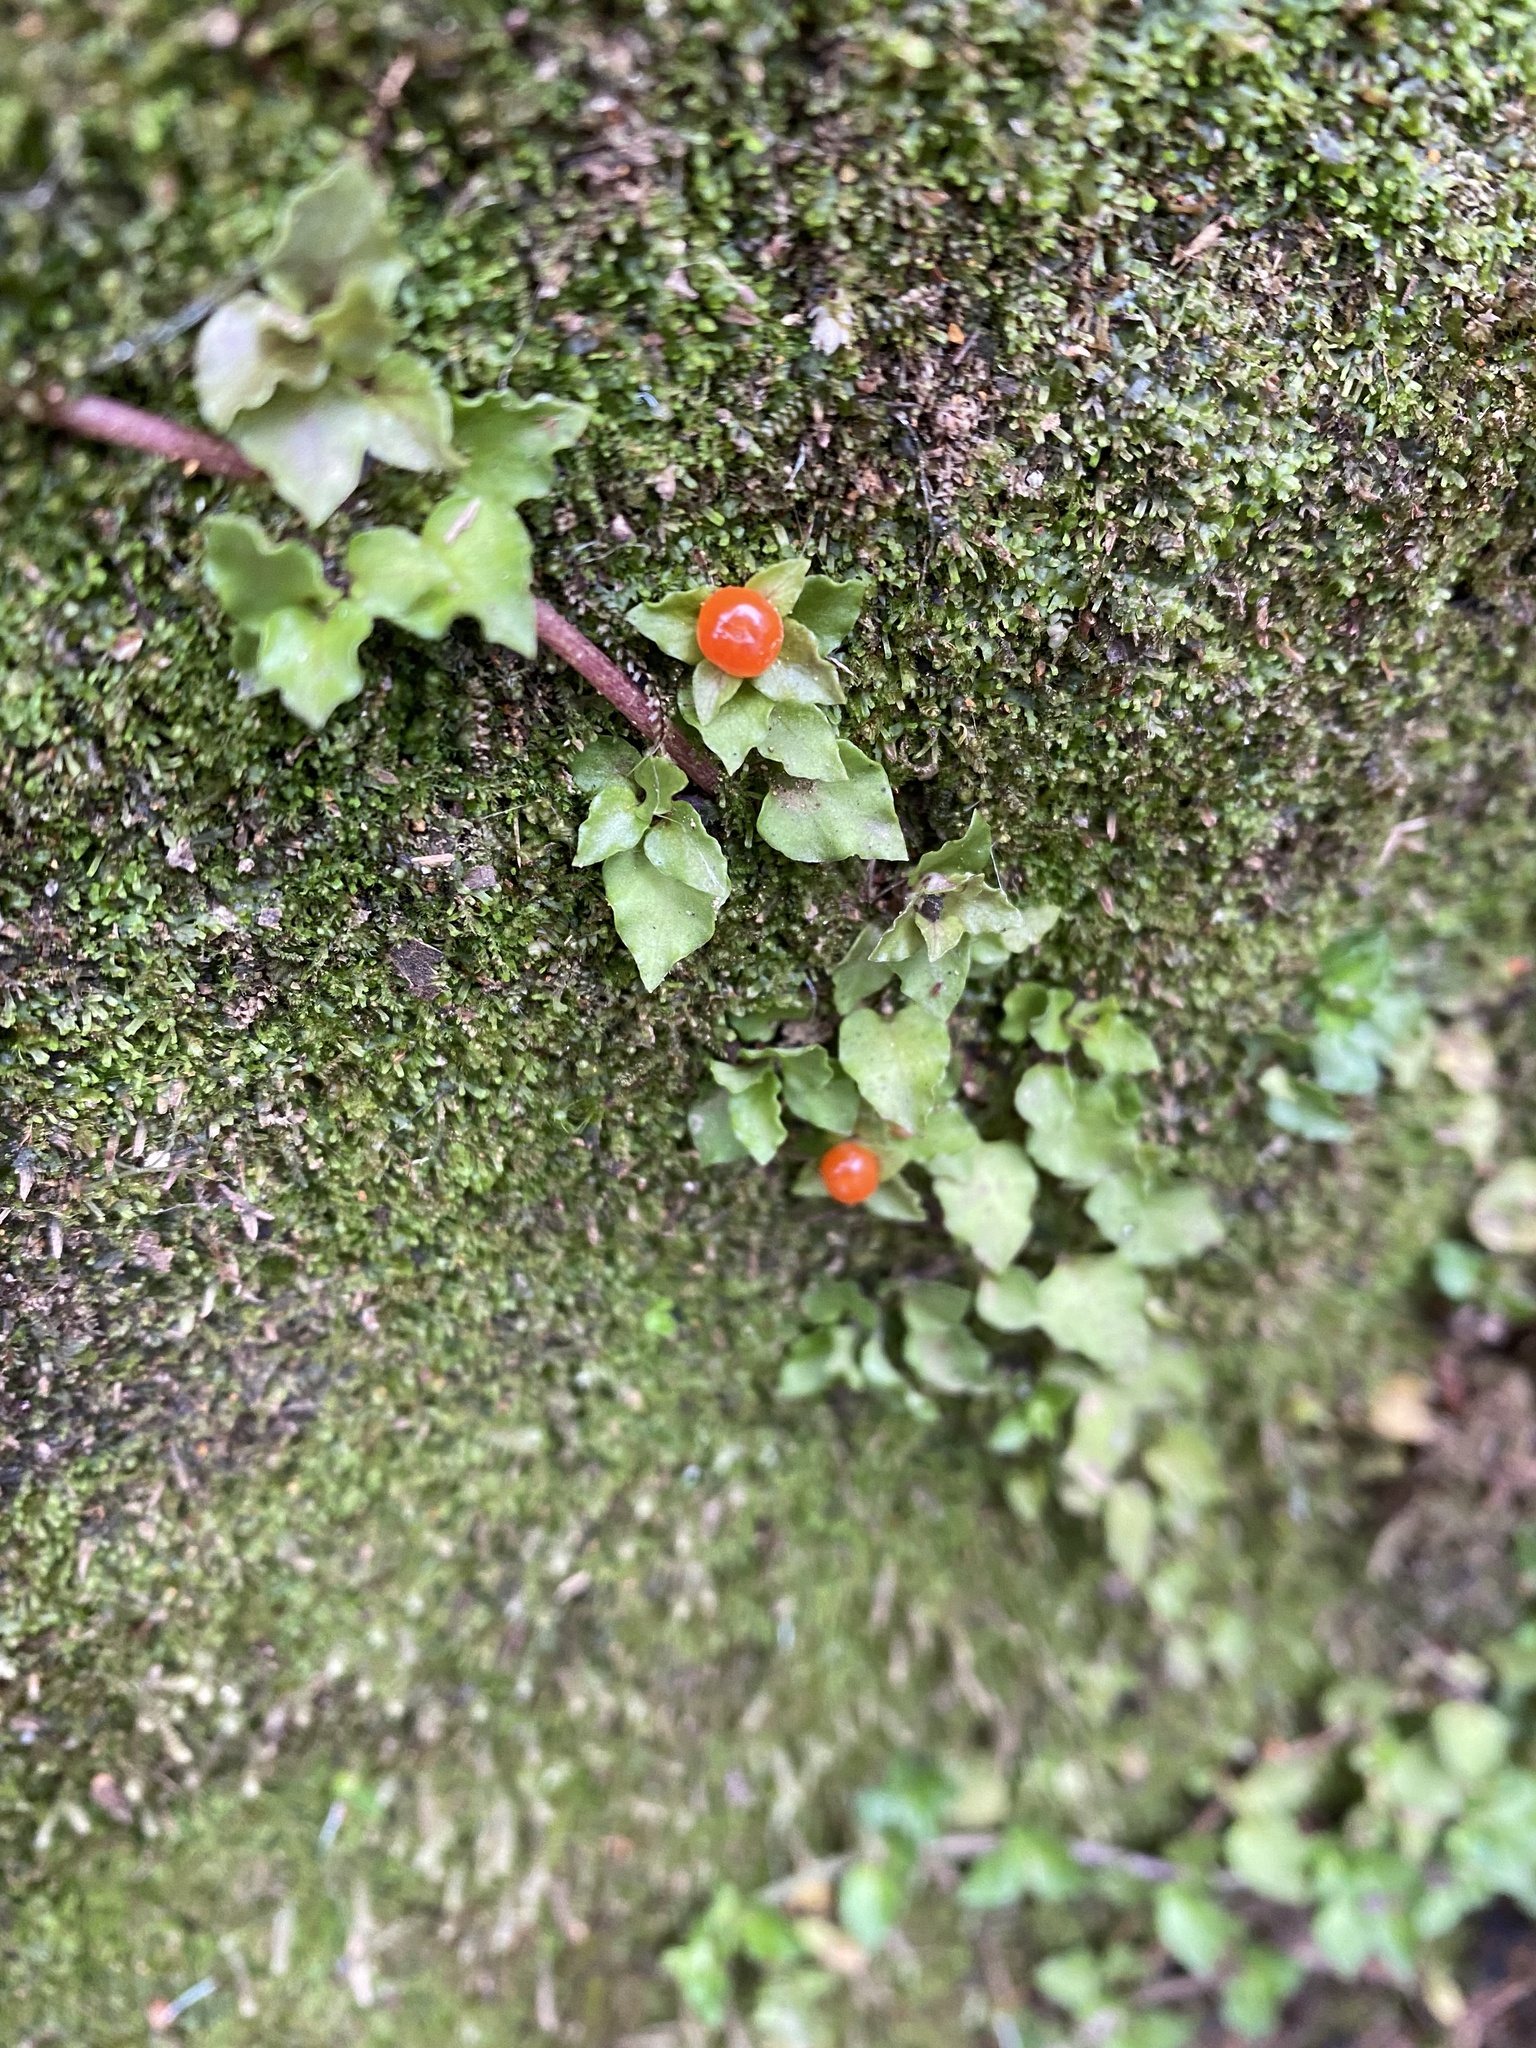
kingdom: Plantae
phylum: Tracheophyta
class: Magnoliopsida
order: Gentianales
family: Rubiaceae
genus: Nertera
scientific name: Nertera granadensis
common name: Beadplant
